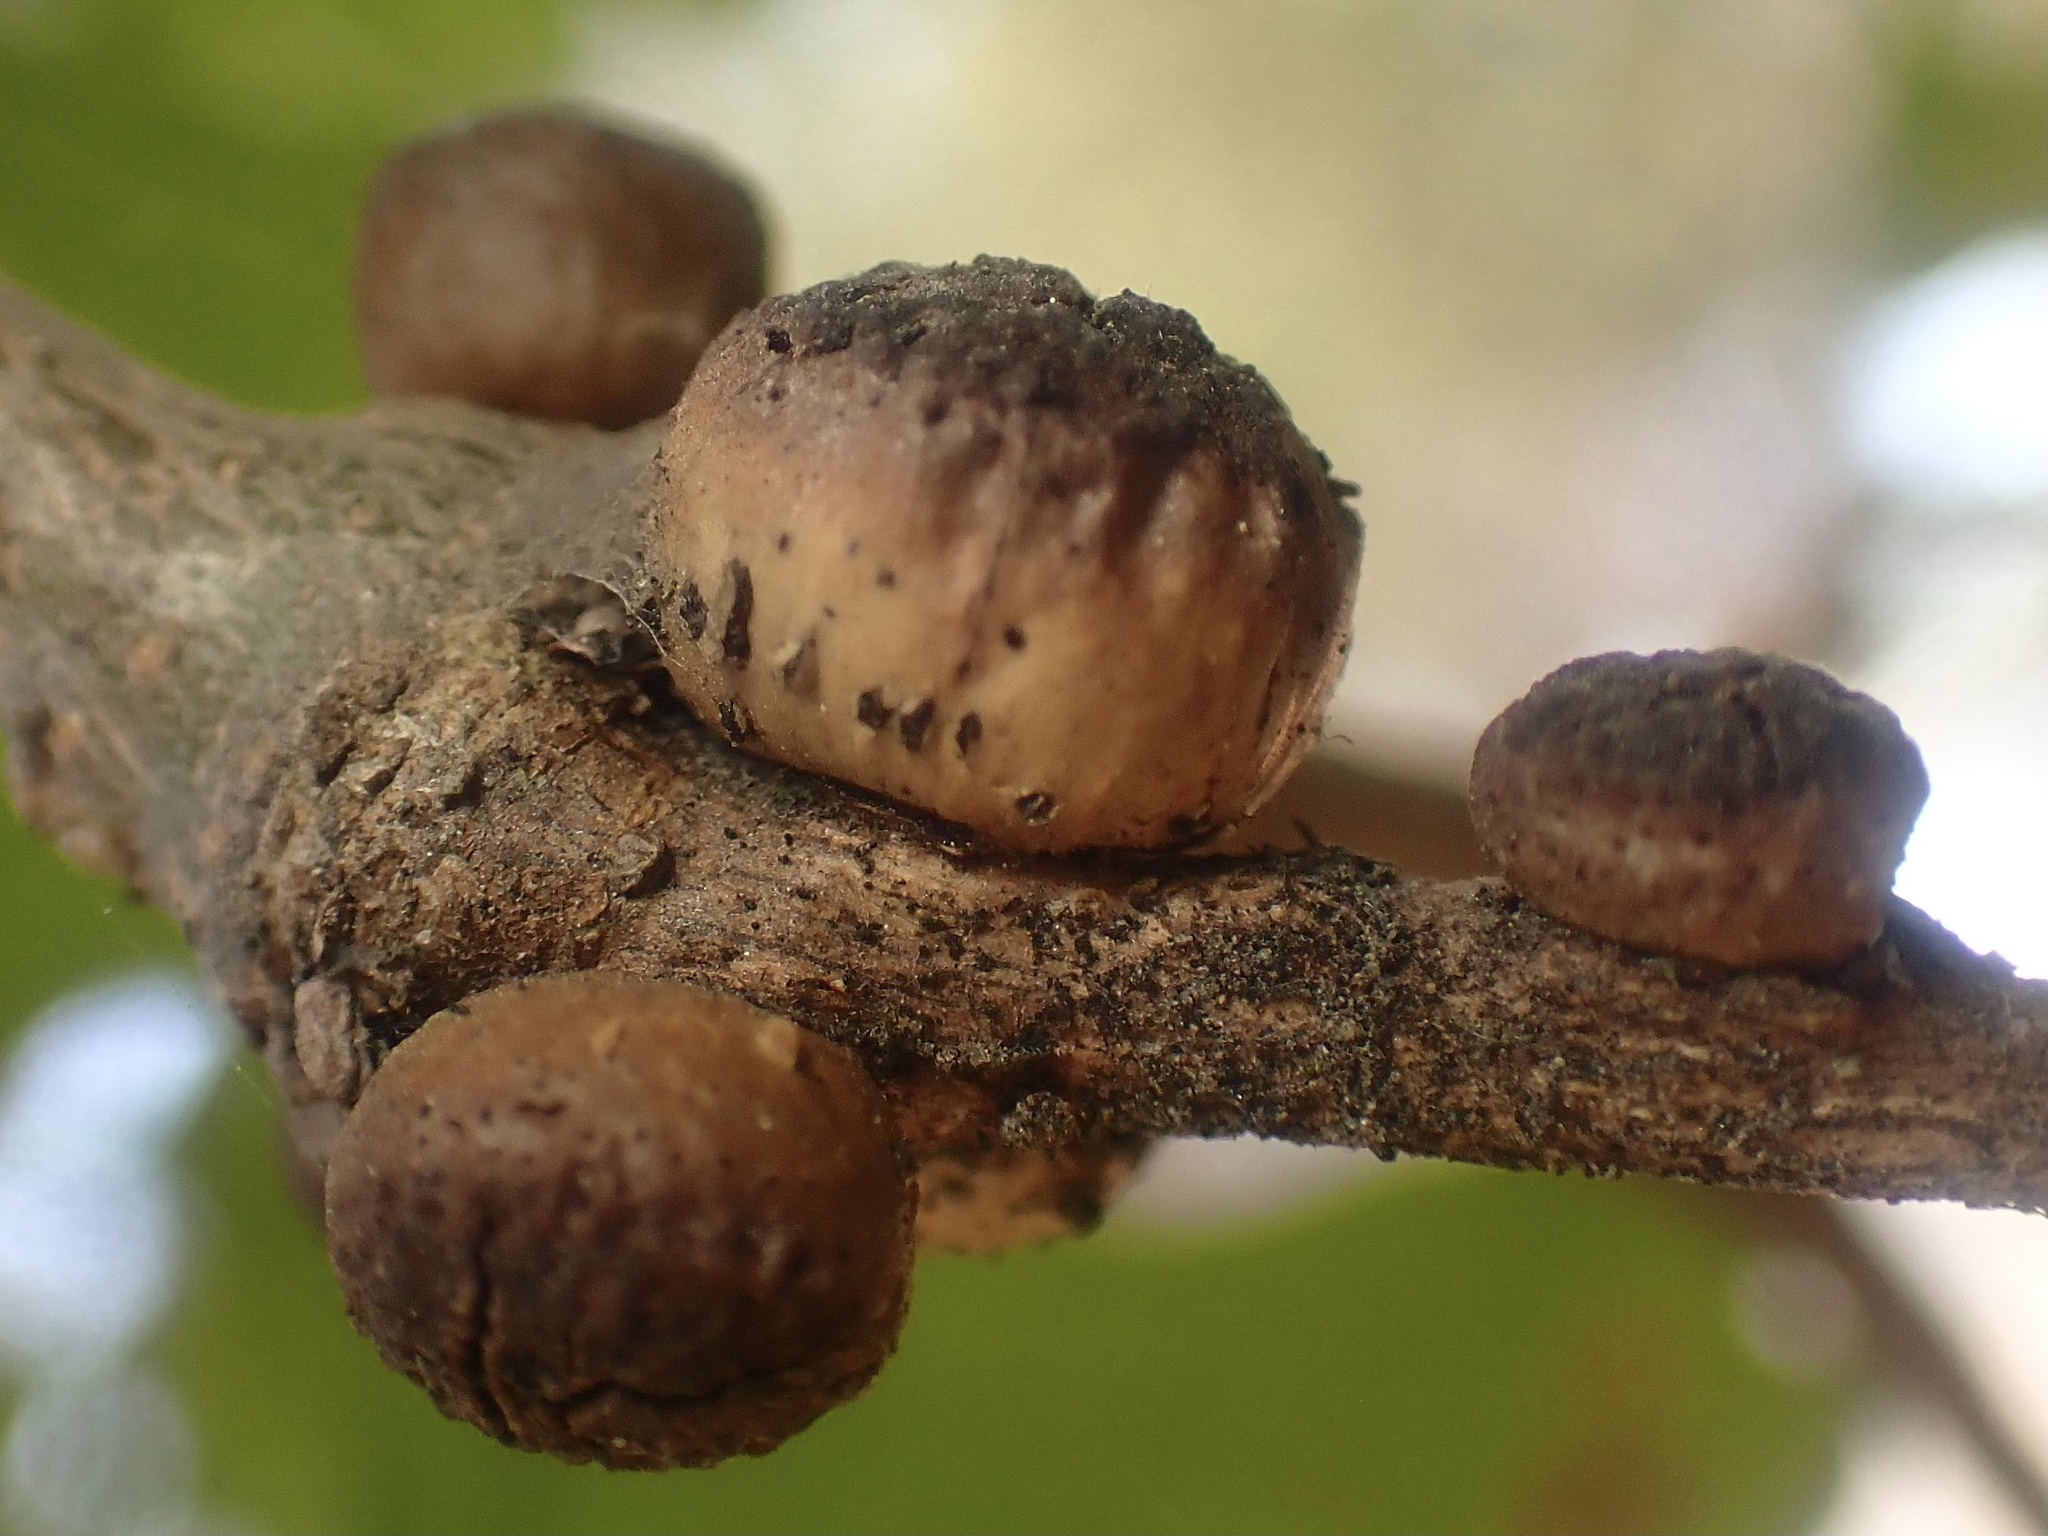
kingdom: Animalia
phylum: Arthropoda
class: Insecta
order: Hymenoptera
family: Cynipidae
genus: Disholcaspis
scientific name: Disholcaspis
